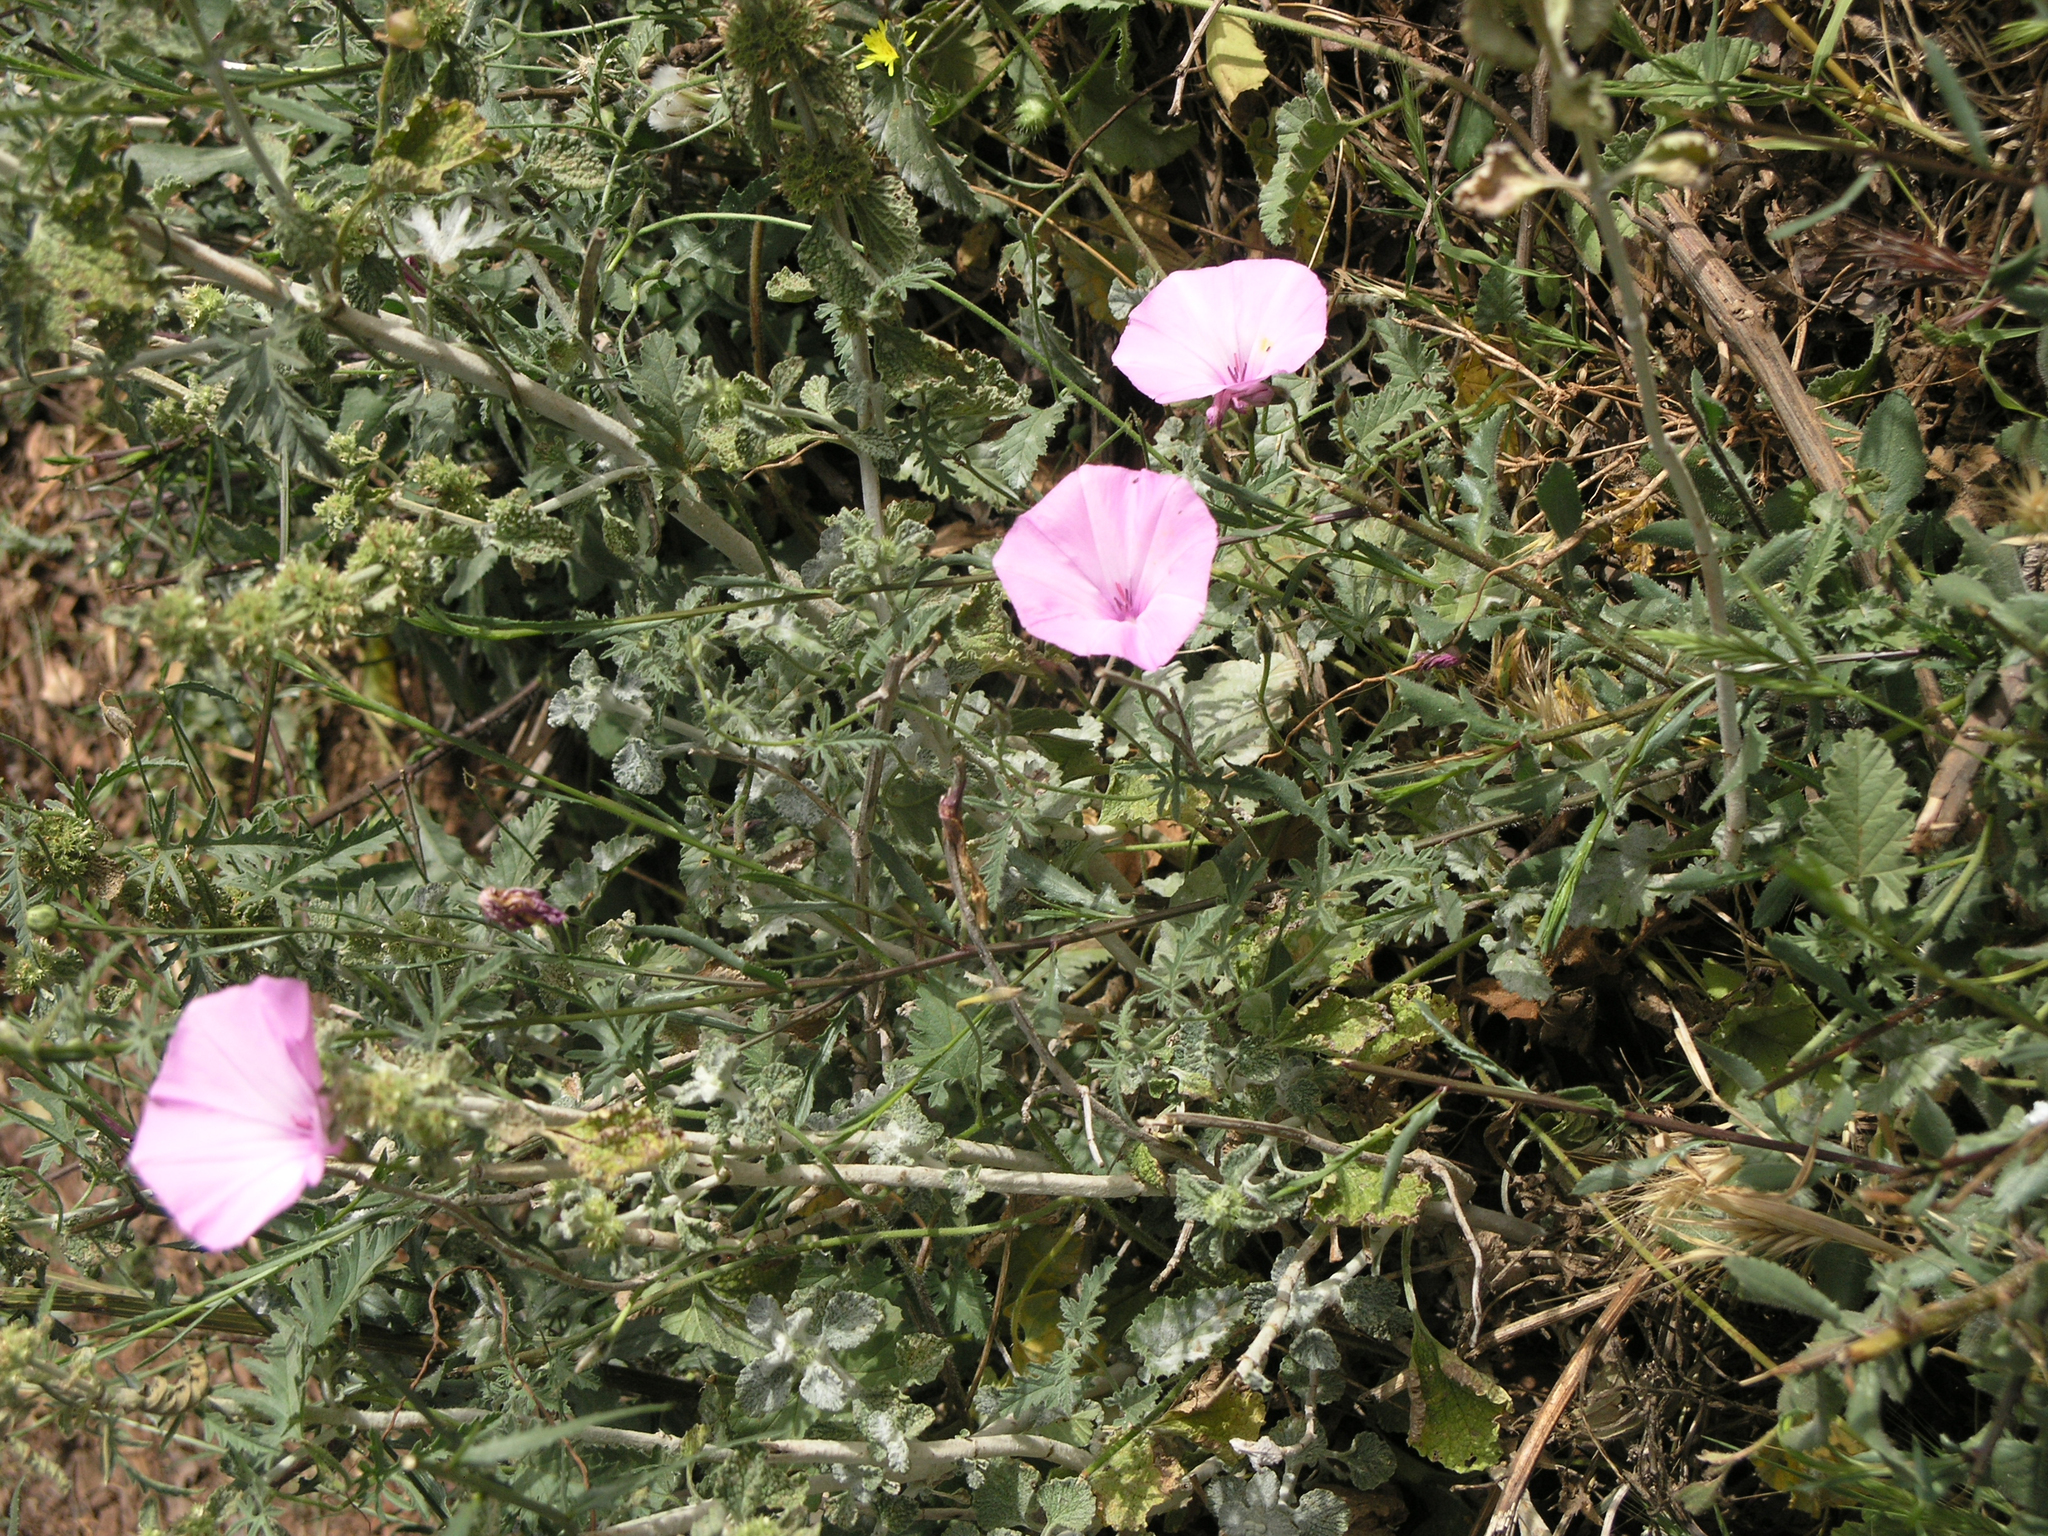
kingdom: Plantae
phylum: Tracheophyta
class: Magnoliopsida
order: Solanales
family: Convolvulaceae
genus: Convolvulus
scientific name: Convolvulus althaeoides
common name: Mallow bindweed
